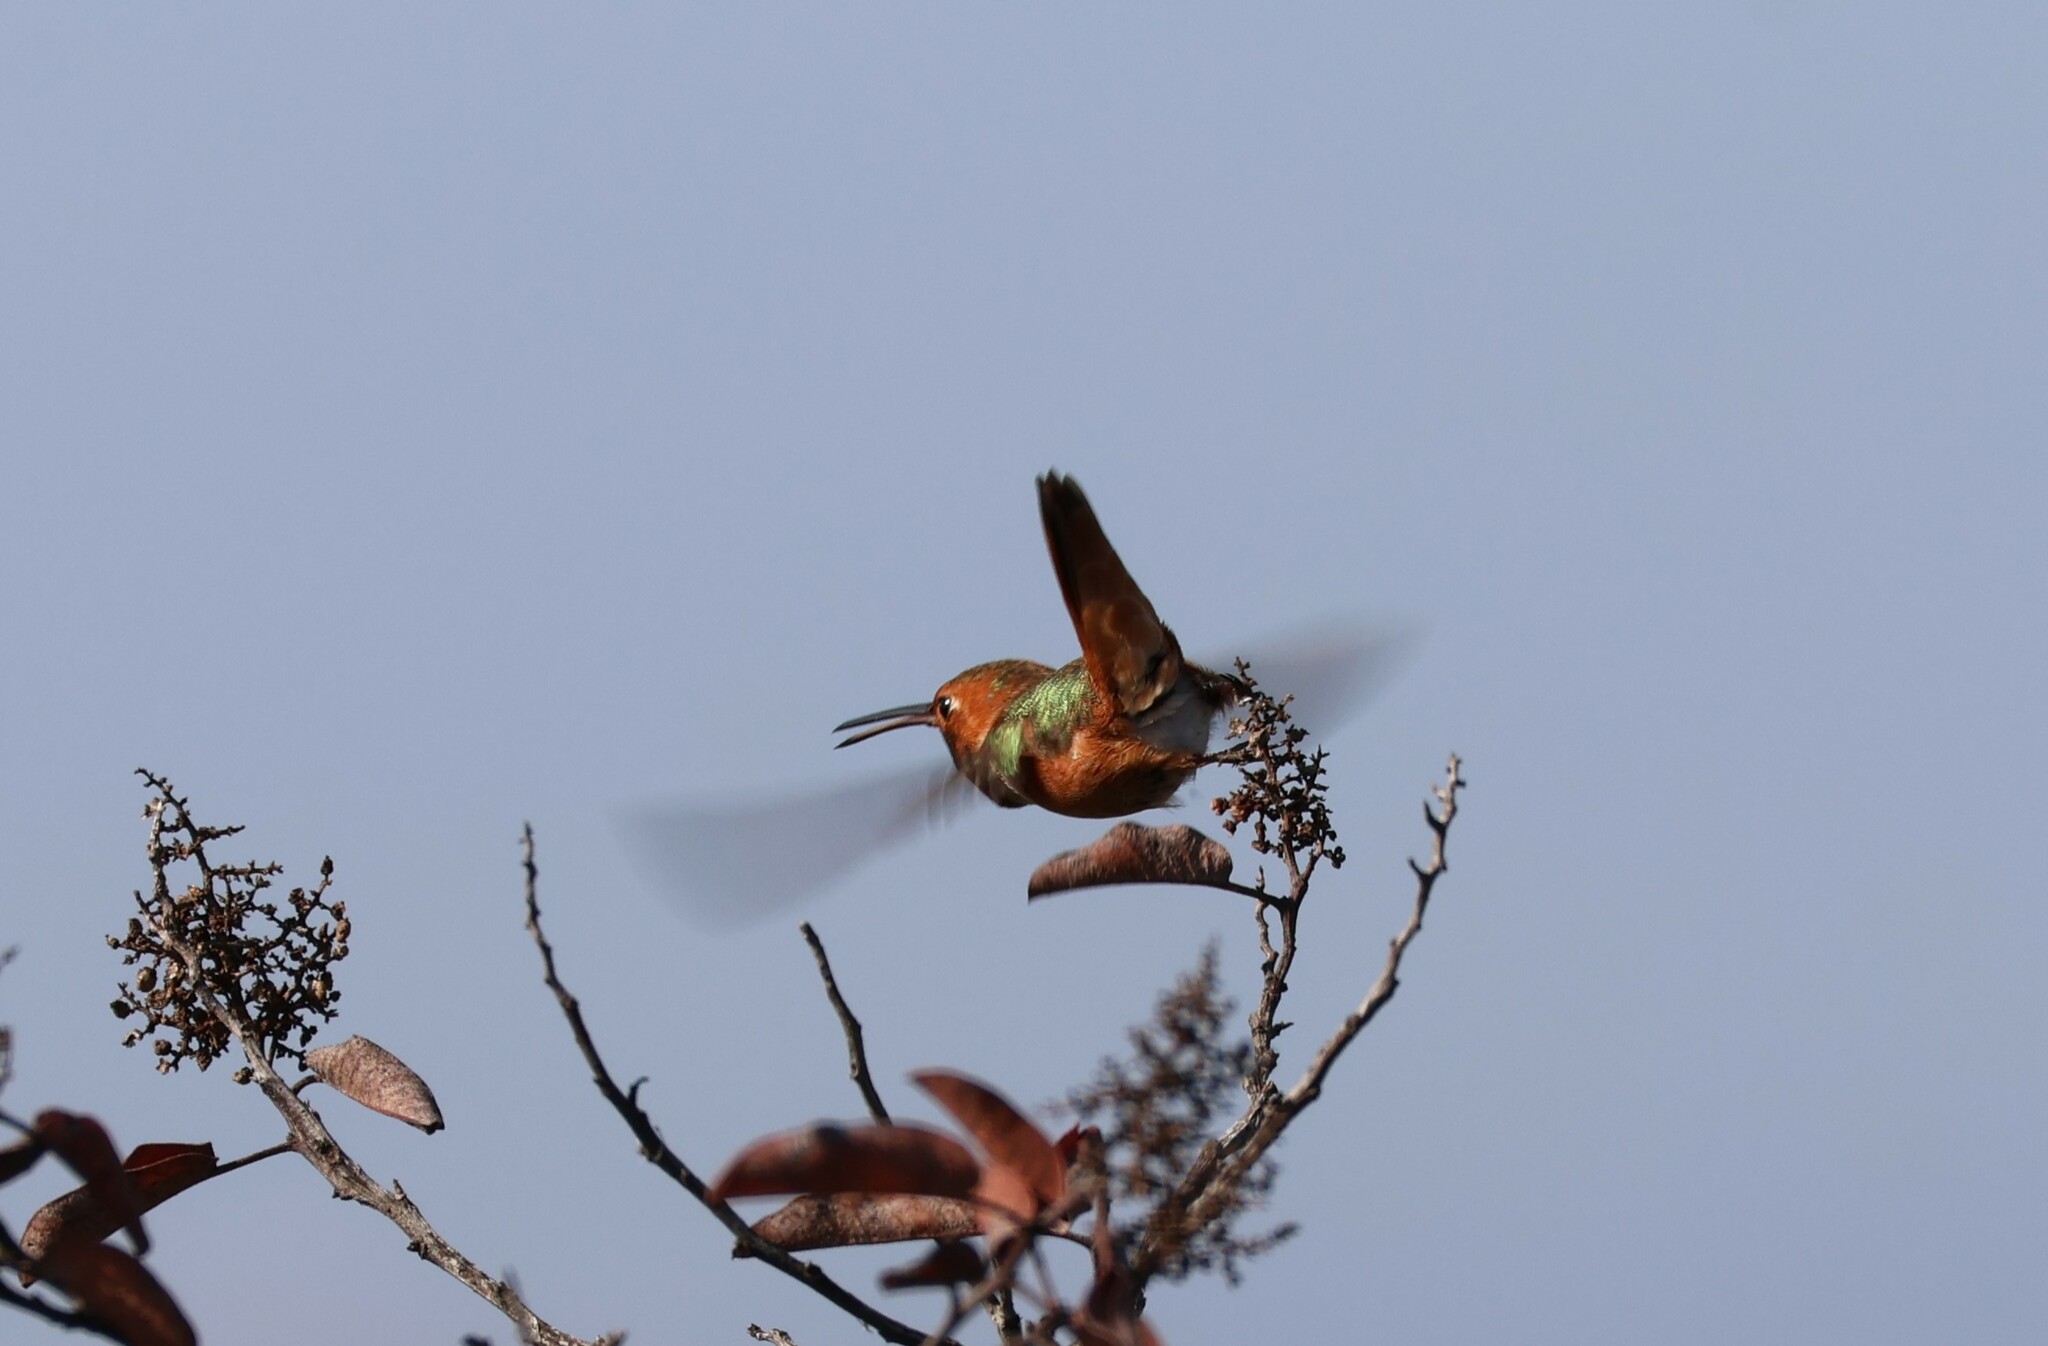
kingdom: Animalia
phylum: Chordata
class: Aves
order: Apodiformes
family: Trochilidae
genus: Selasphorus
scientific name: Selasphorus sasin
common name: Allen's hummingbird
